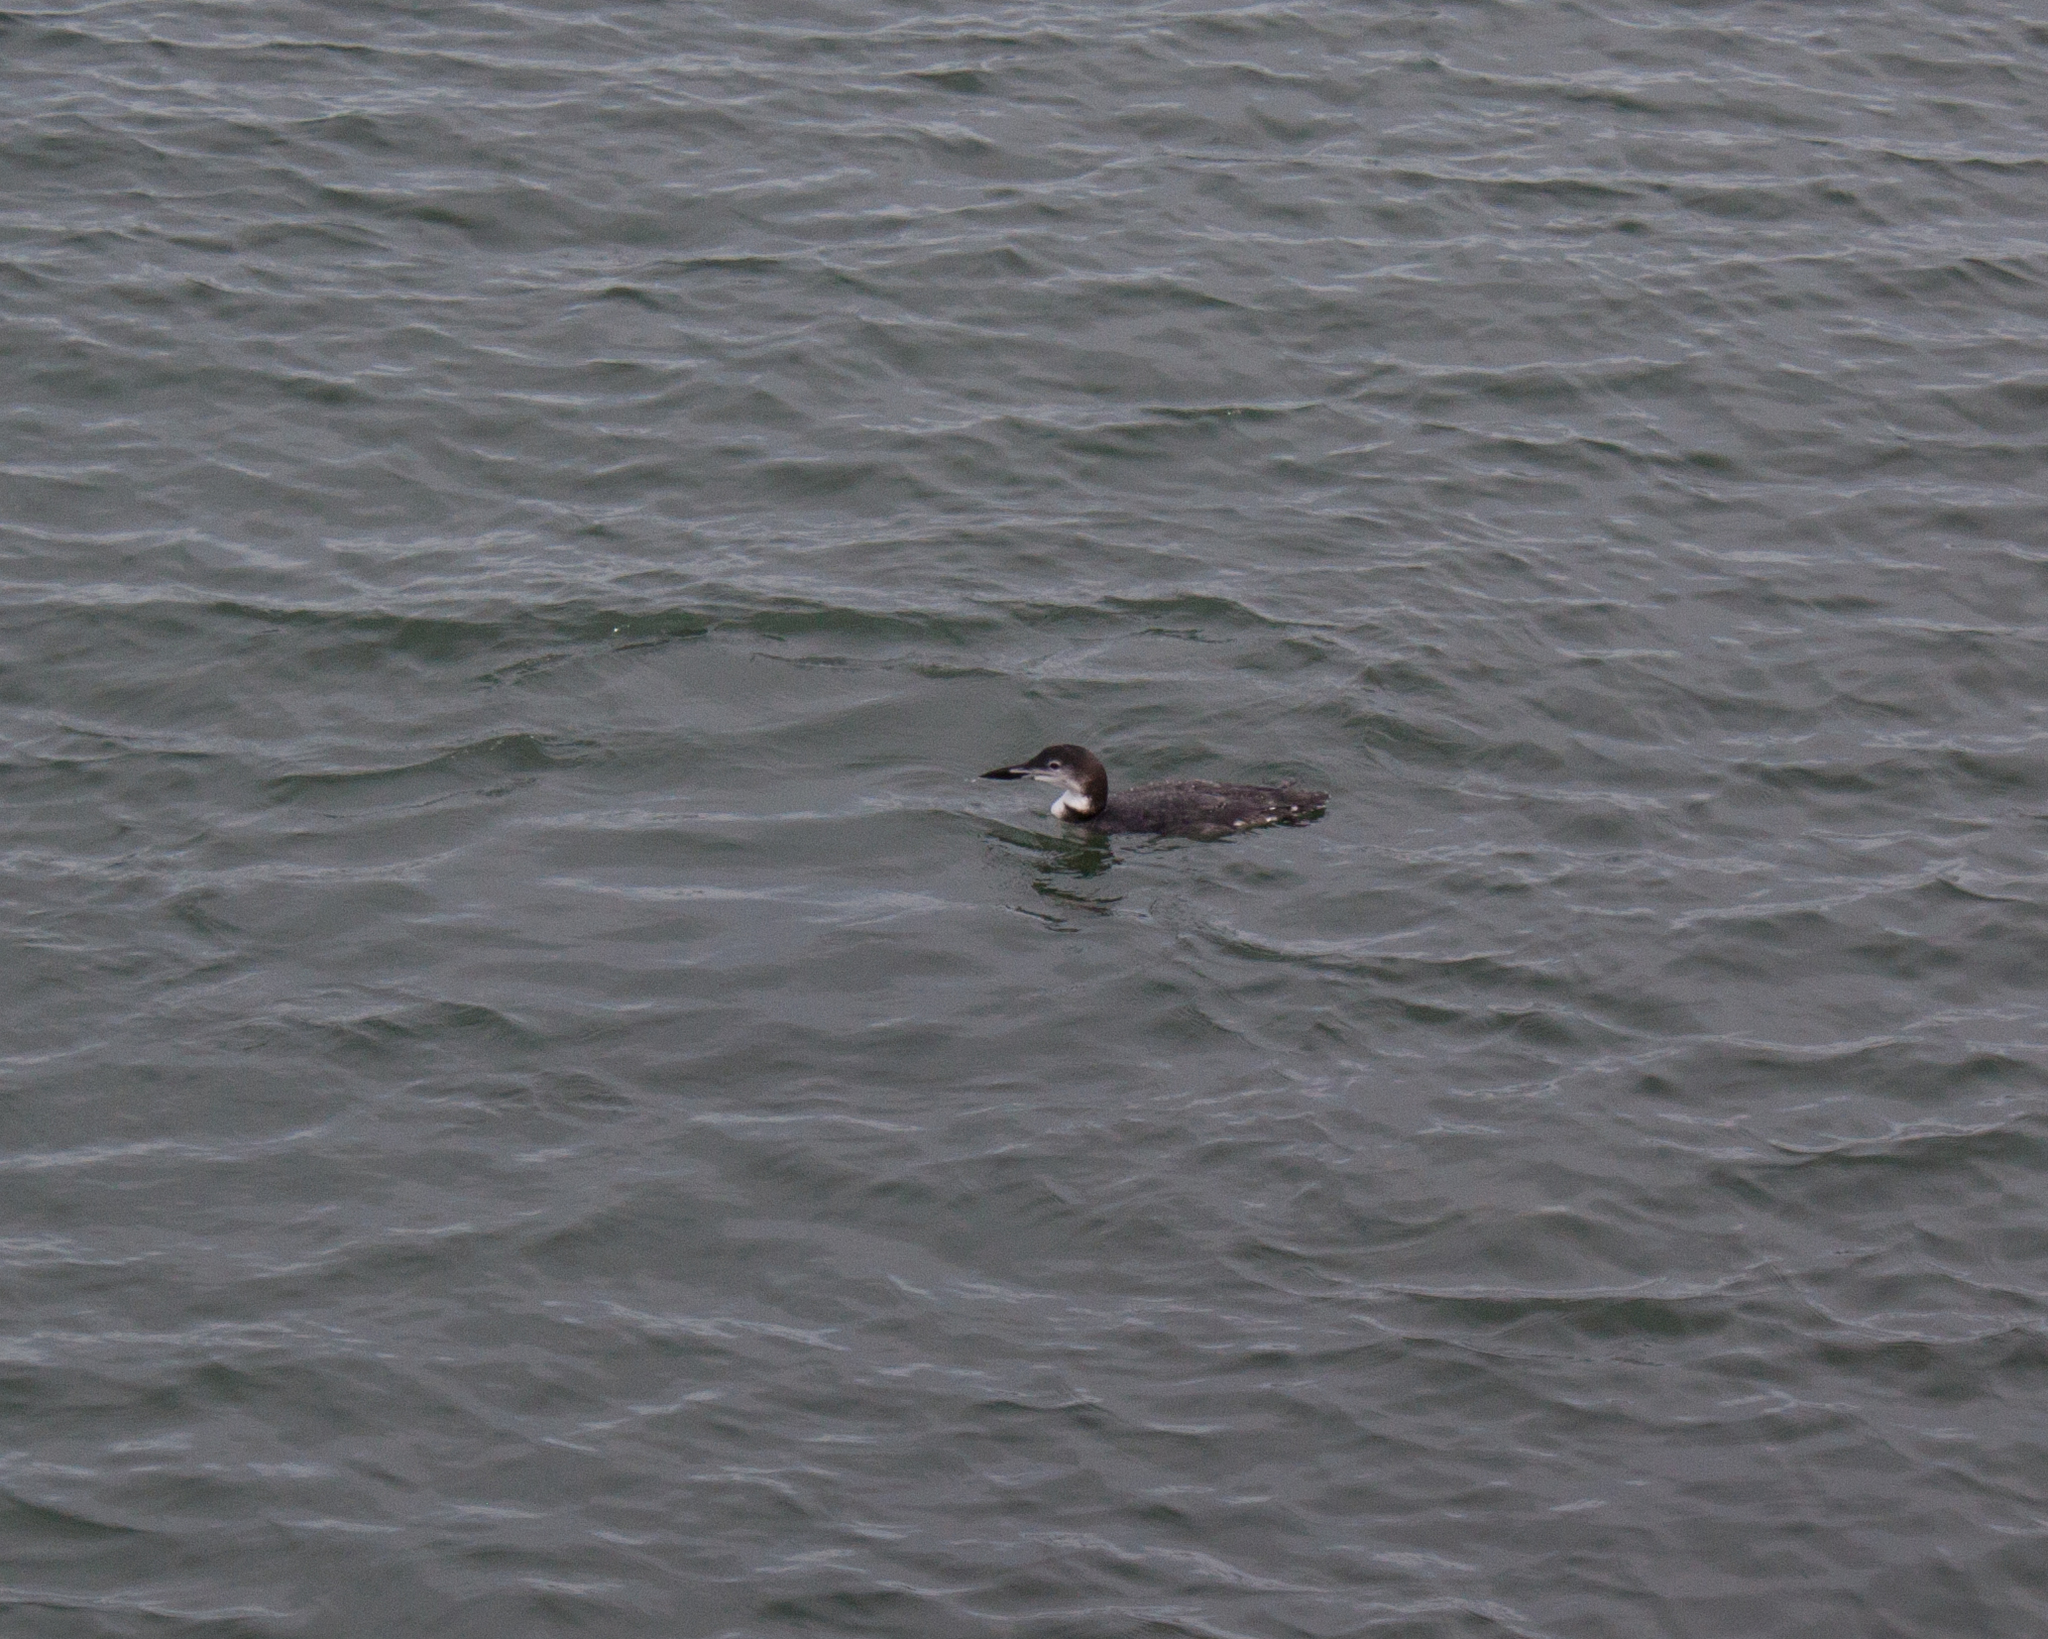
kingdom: Animalia
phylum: Chordata
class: Aves
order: Gaviiformes
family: Gaviidae
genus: Gavia
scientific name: Gavia immer
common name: Common loon
